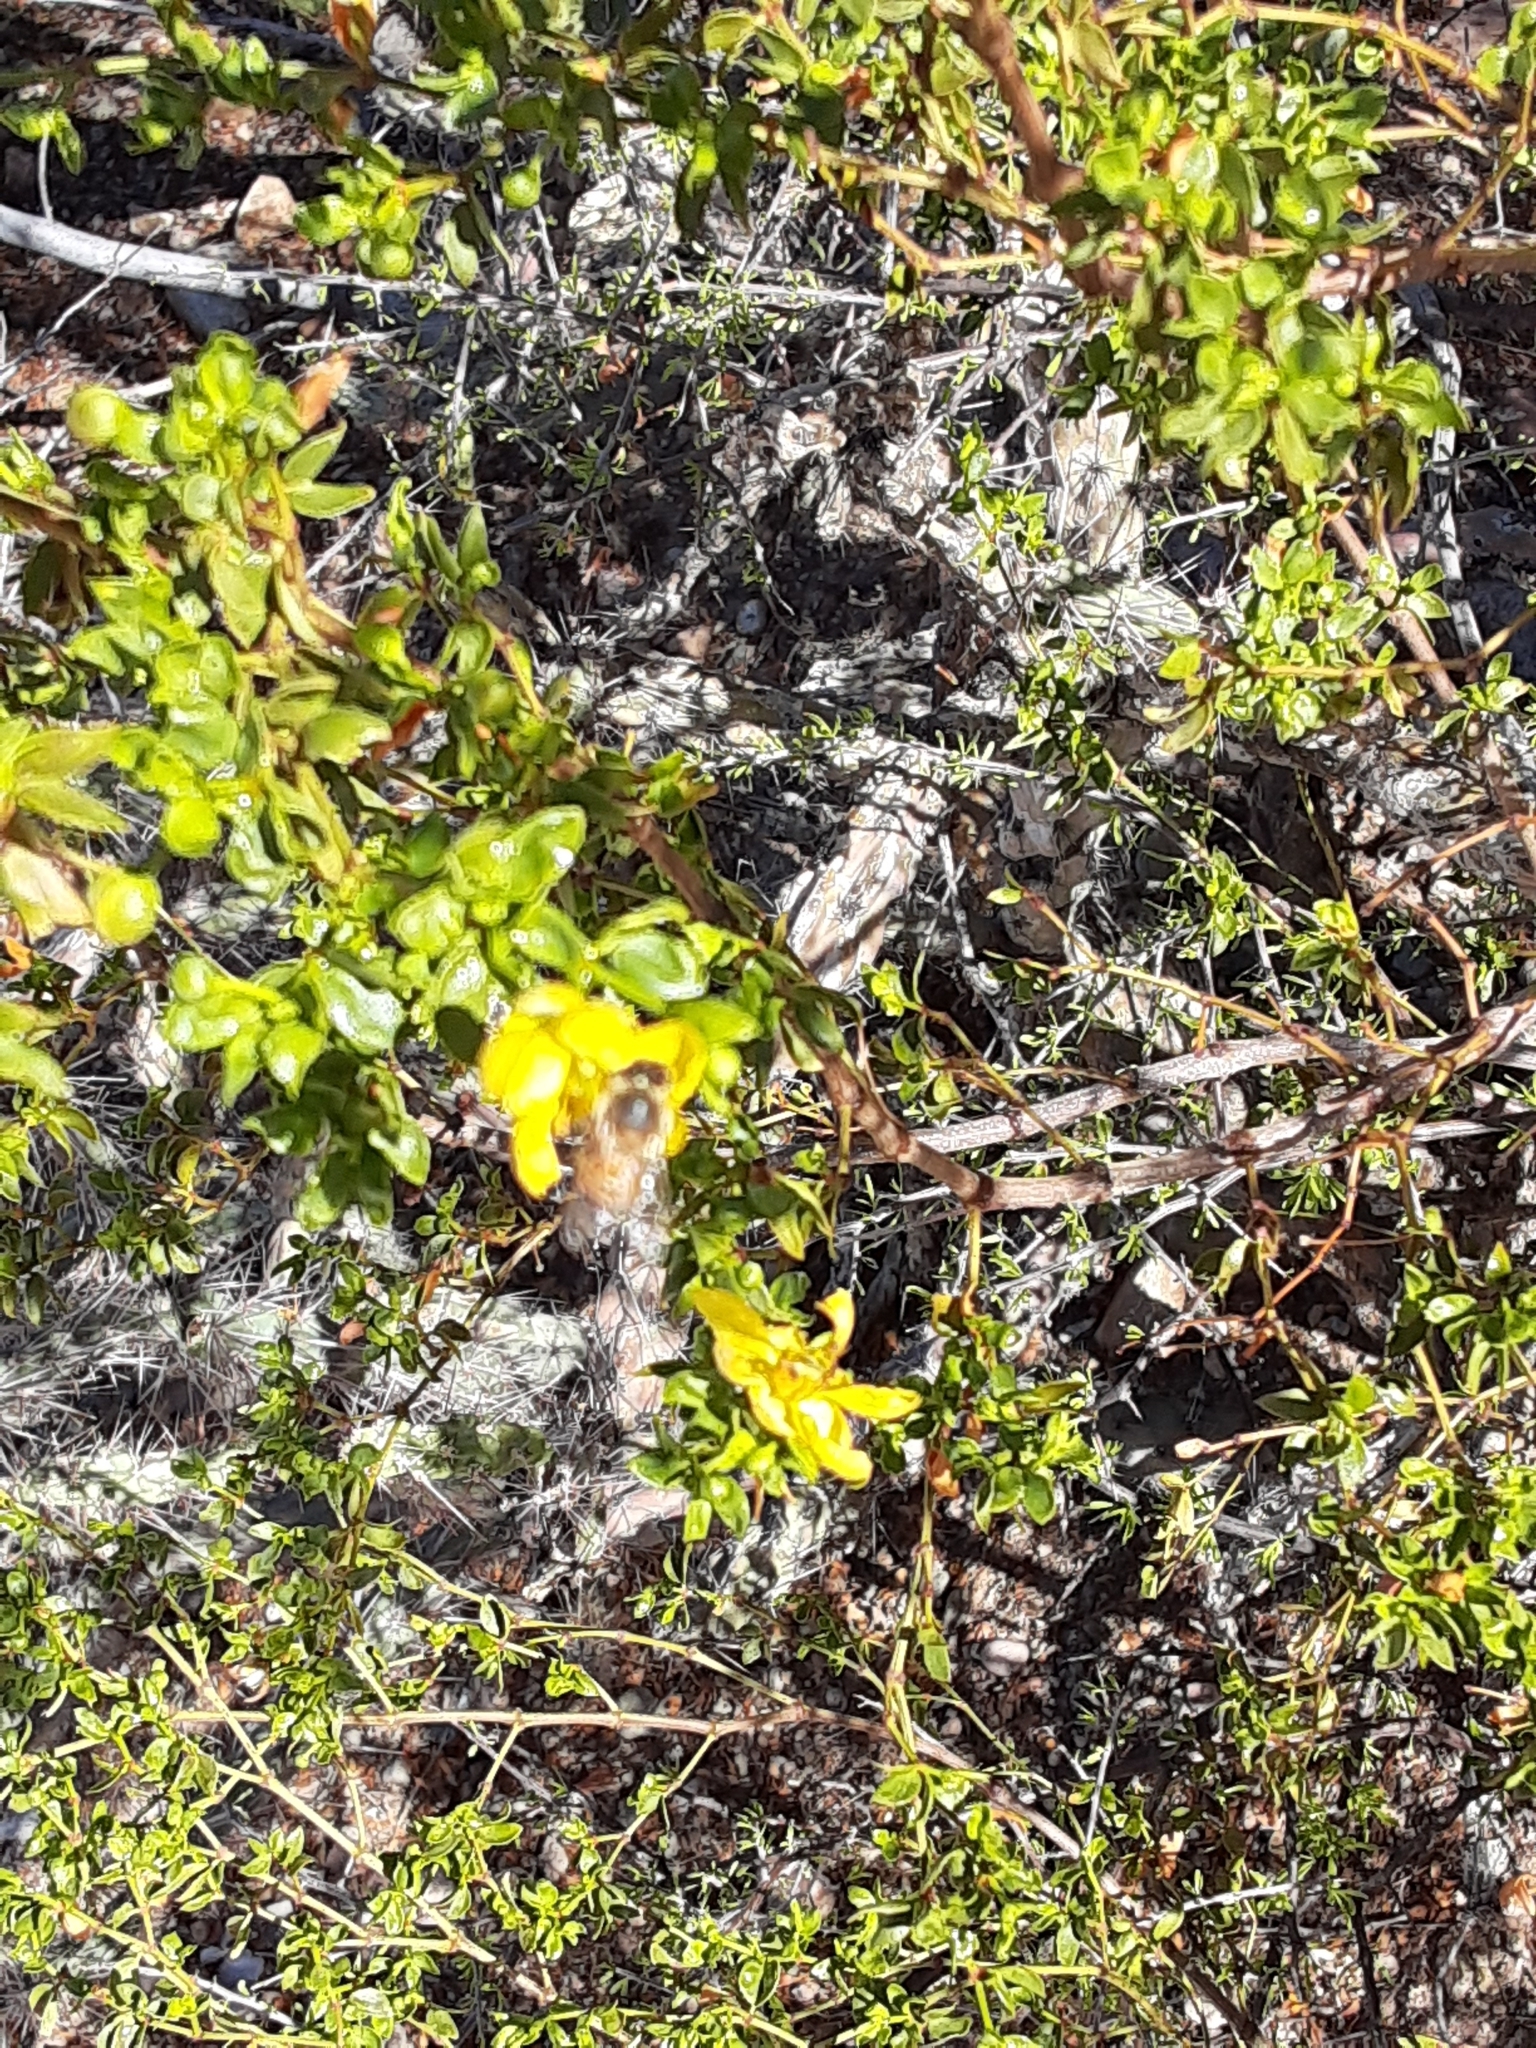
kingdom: Plantae
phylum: Tracheophyta
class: Magnoliopsida
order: Zygophyllales
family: Zygophyllaceae
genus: Larrea
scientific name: Larrea tridentata
